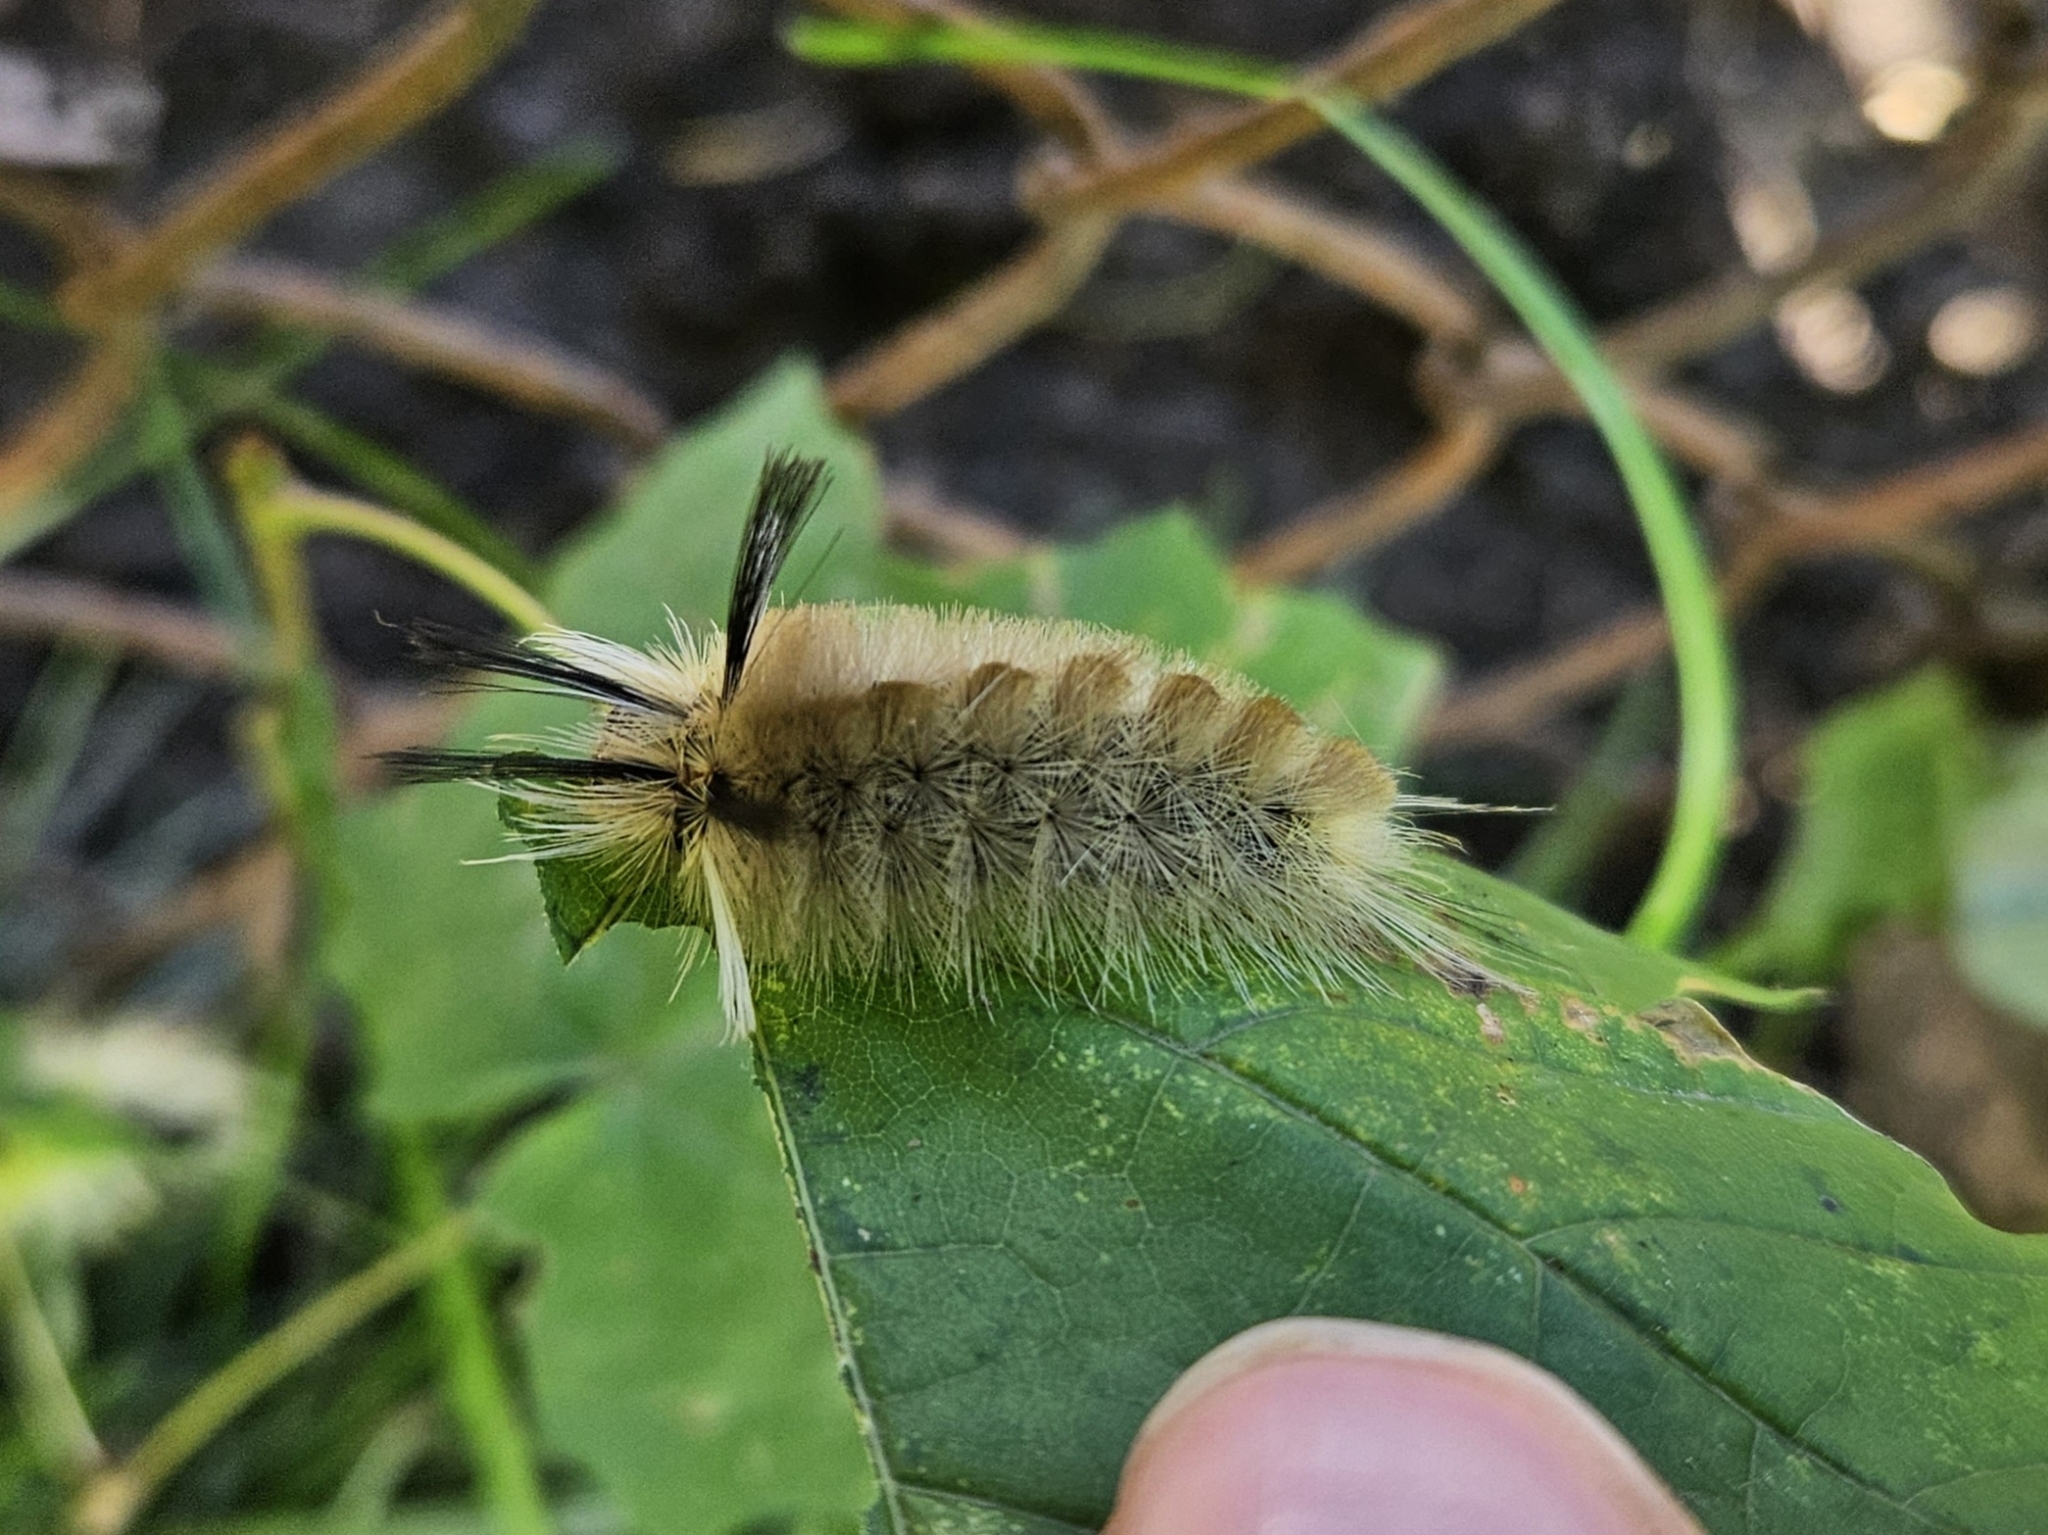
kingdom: Animalia
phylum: Arthropoda
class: Insecta
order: Lepidoptera
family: Erebidae
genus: Halysidota
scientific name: Halysidota tessellaris
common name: Banded tussock moth
